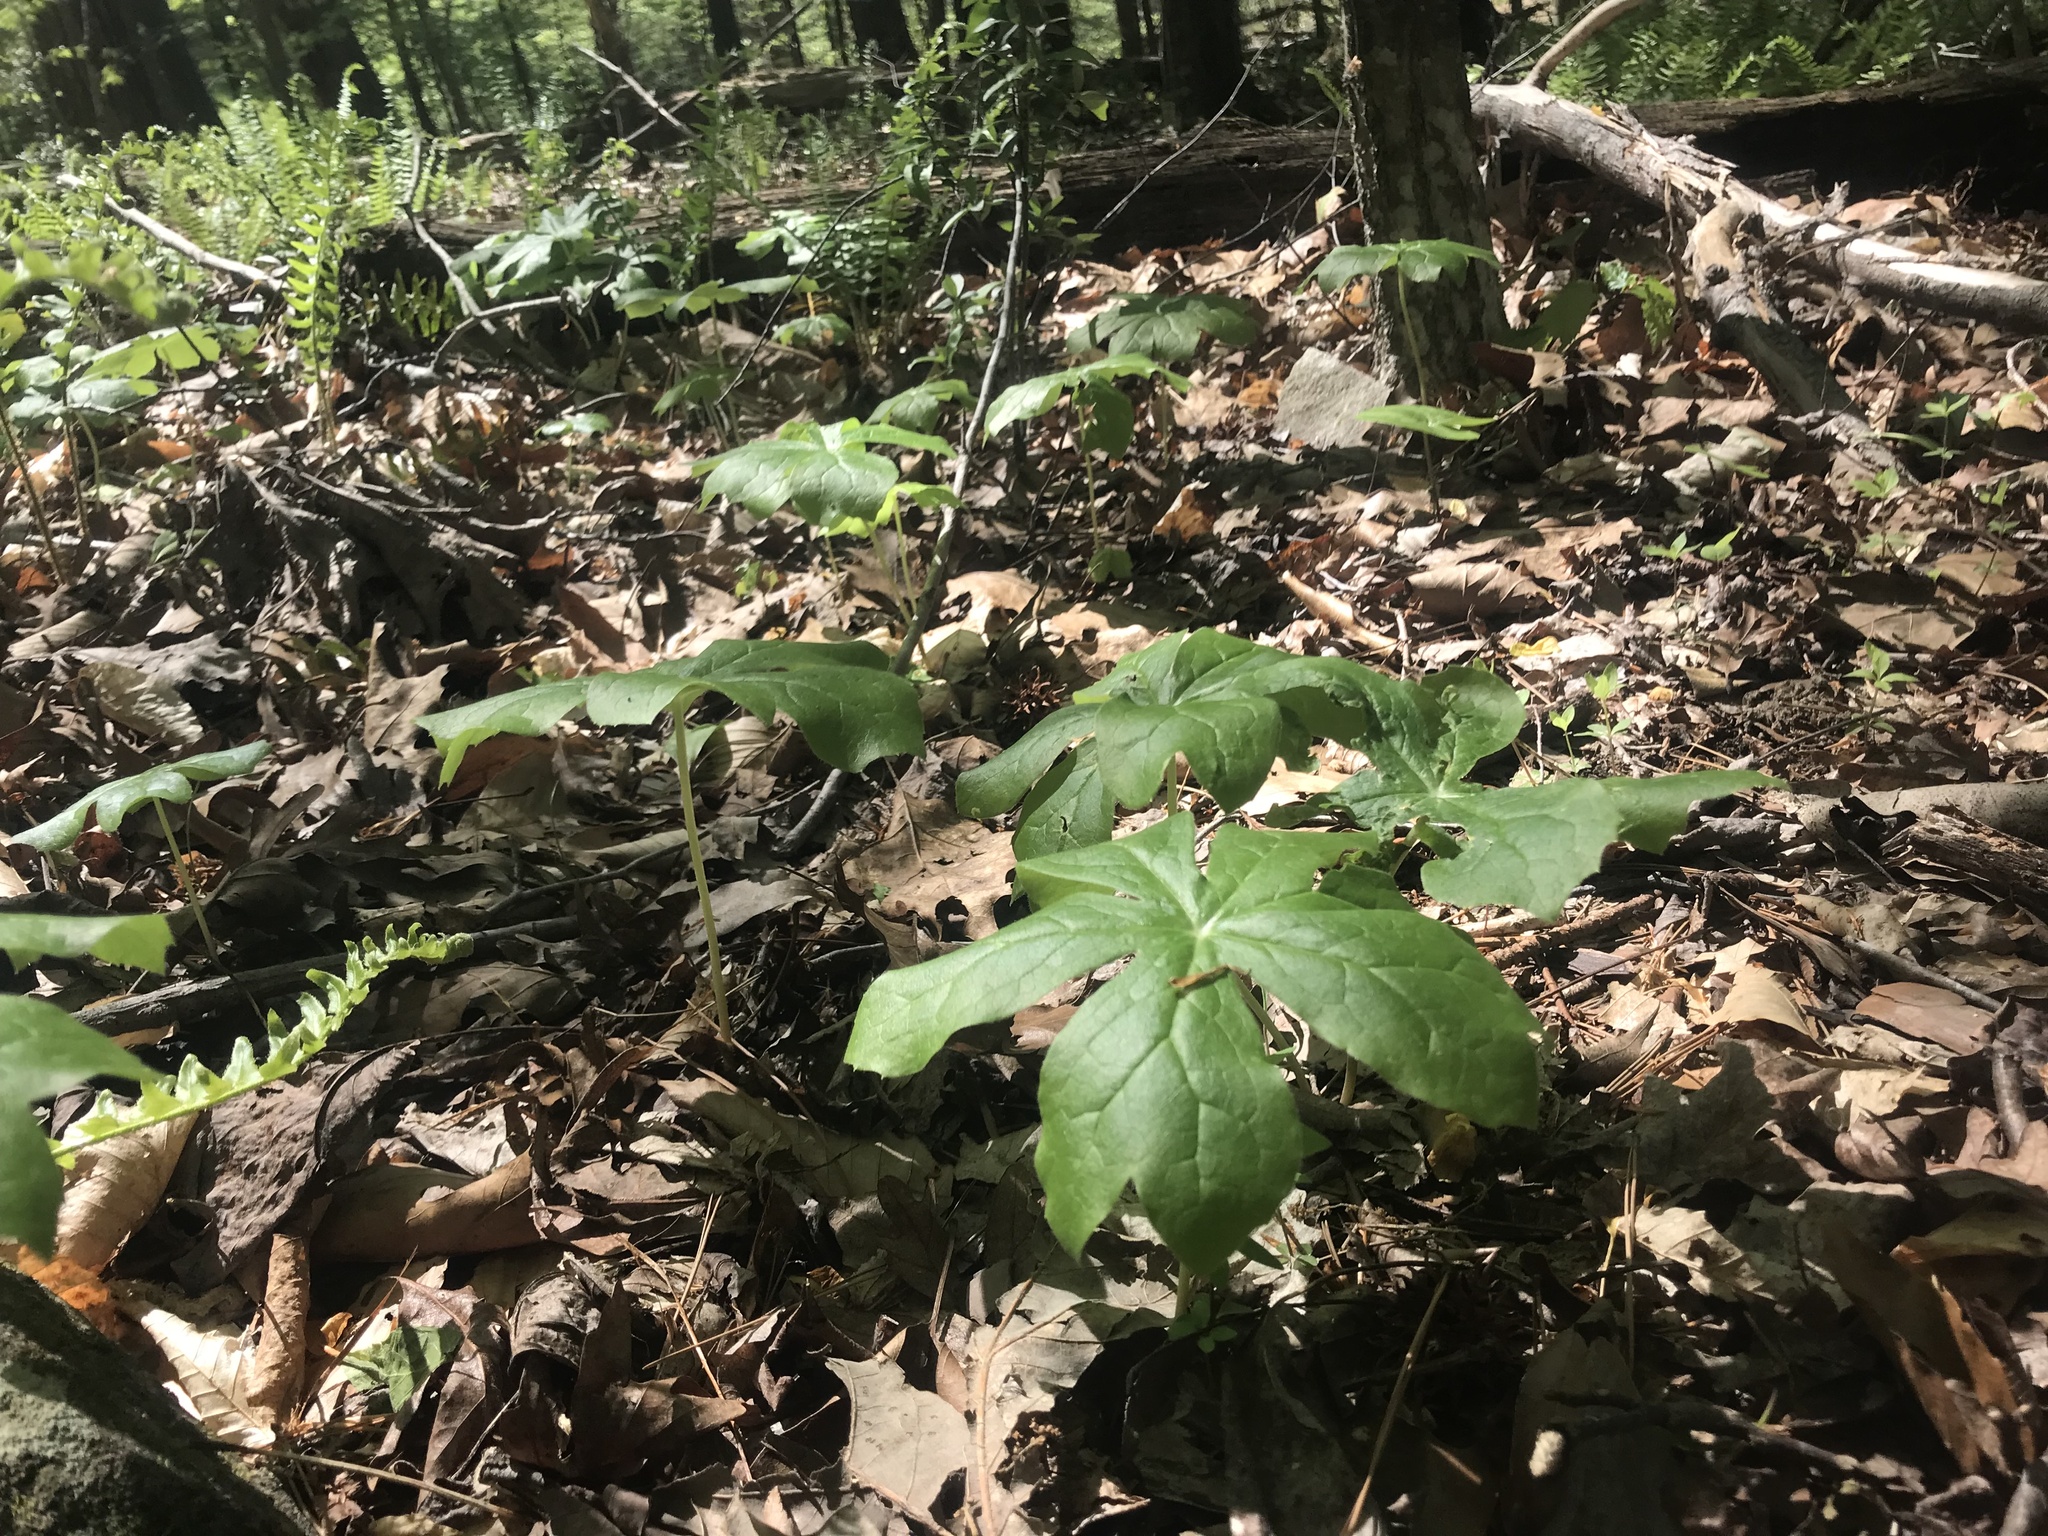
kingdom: Plantae
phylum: Tracheophyta
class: Magnoliopsida
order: Ranunculales
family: Berberidaceae
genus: Podophyllum
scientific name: Podophyllum peltatum
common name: Wild mandrake
